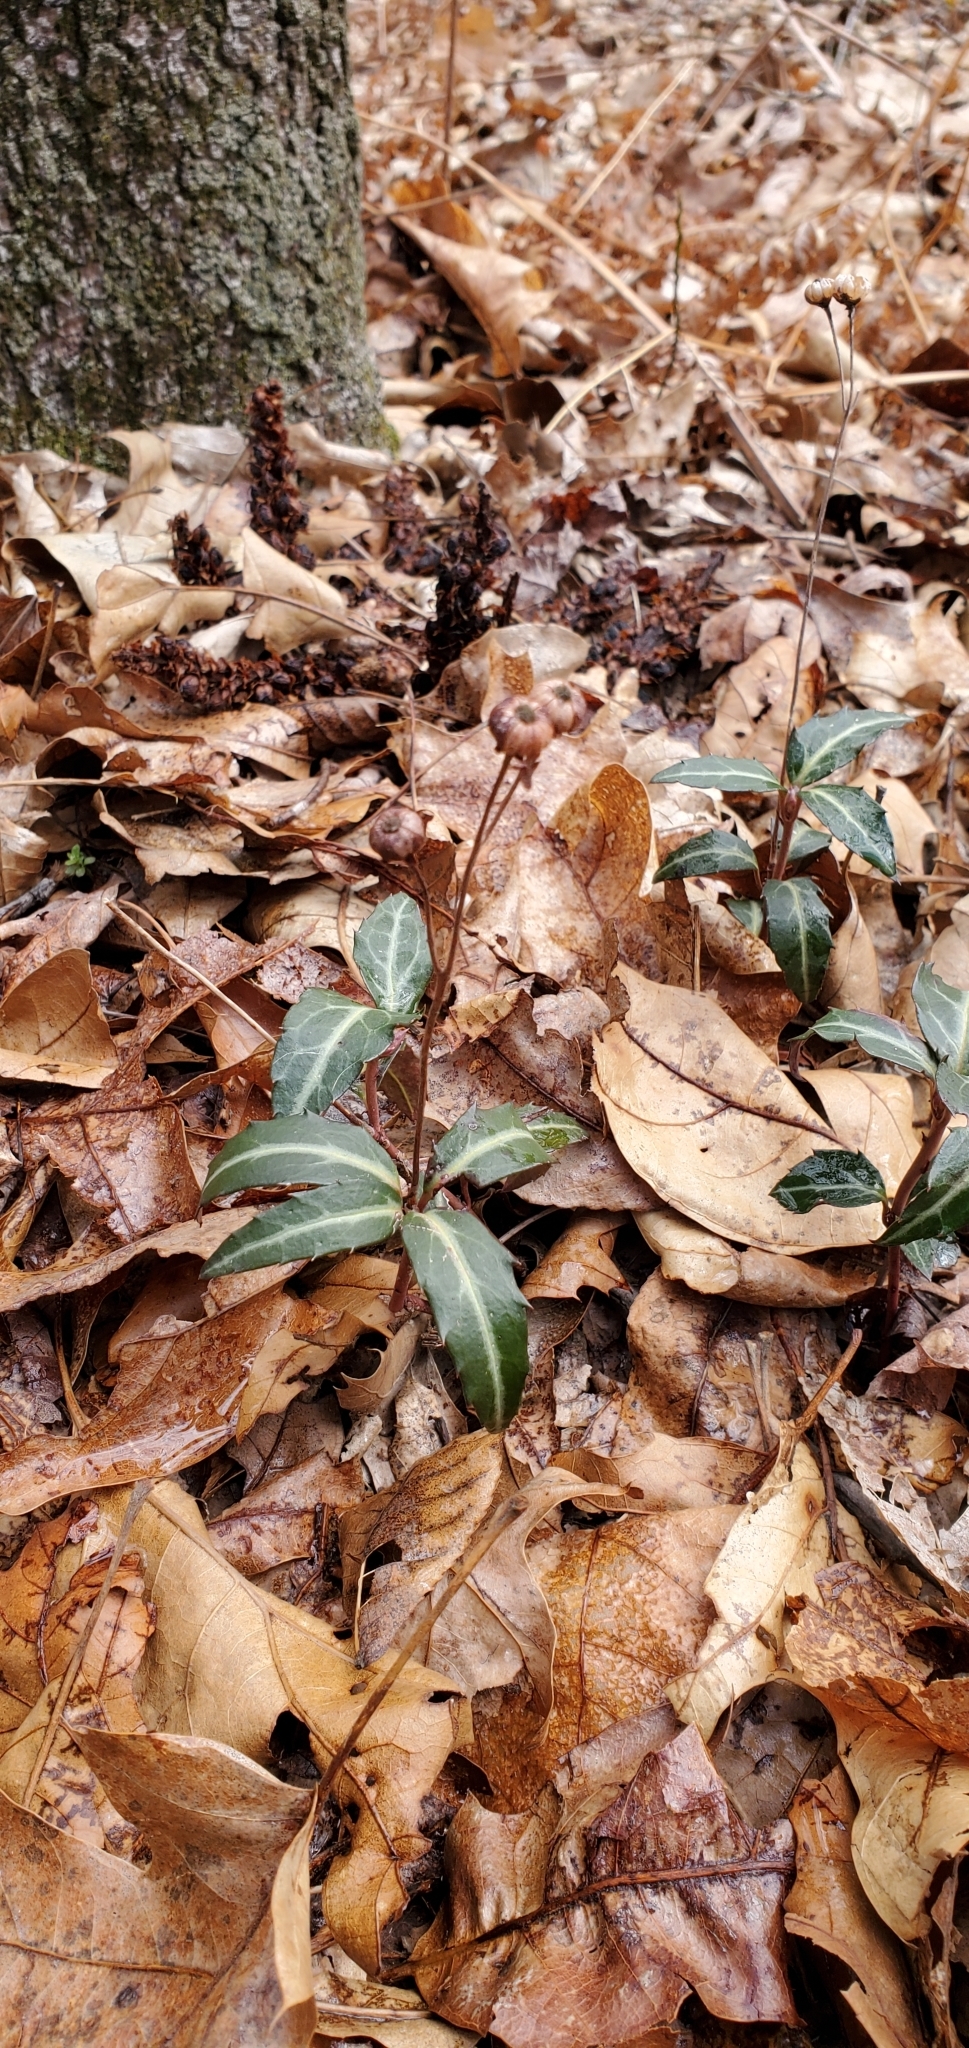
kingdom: Plantae
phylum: Tracheophyta
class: Magnoliopsida
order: Ericales
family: Ericaceae
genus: Chimaphila
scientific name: Chimaphila maculata
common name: Spotted pipsissewa
